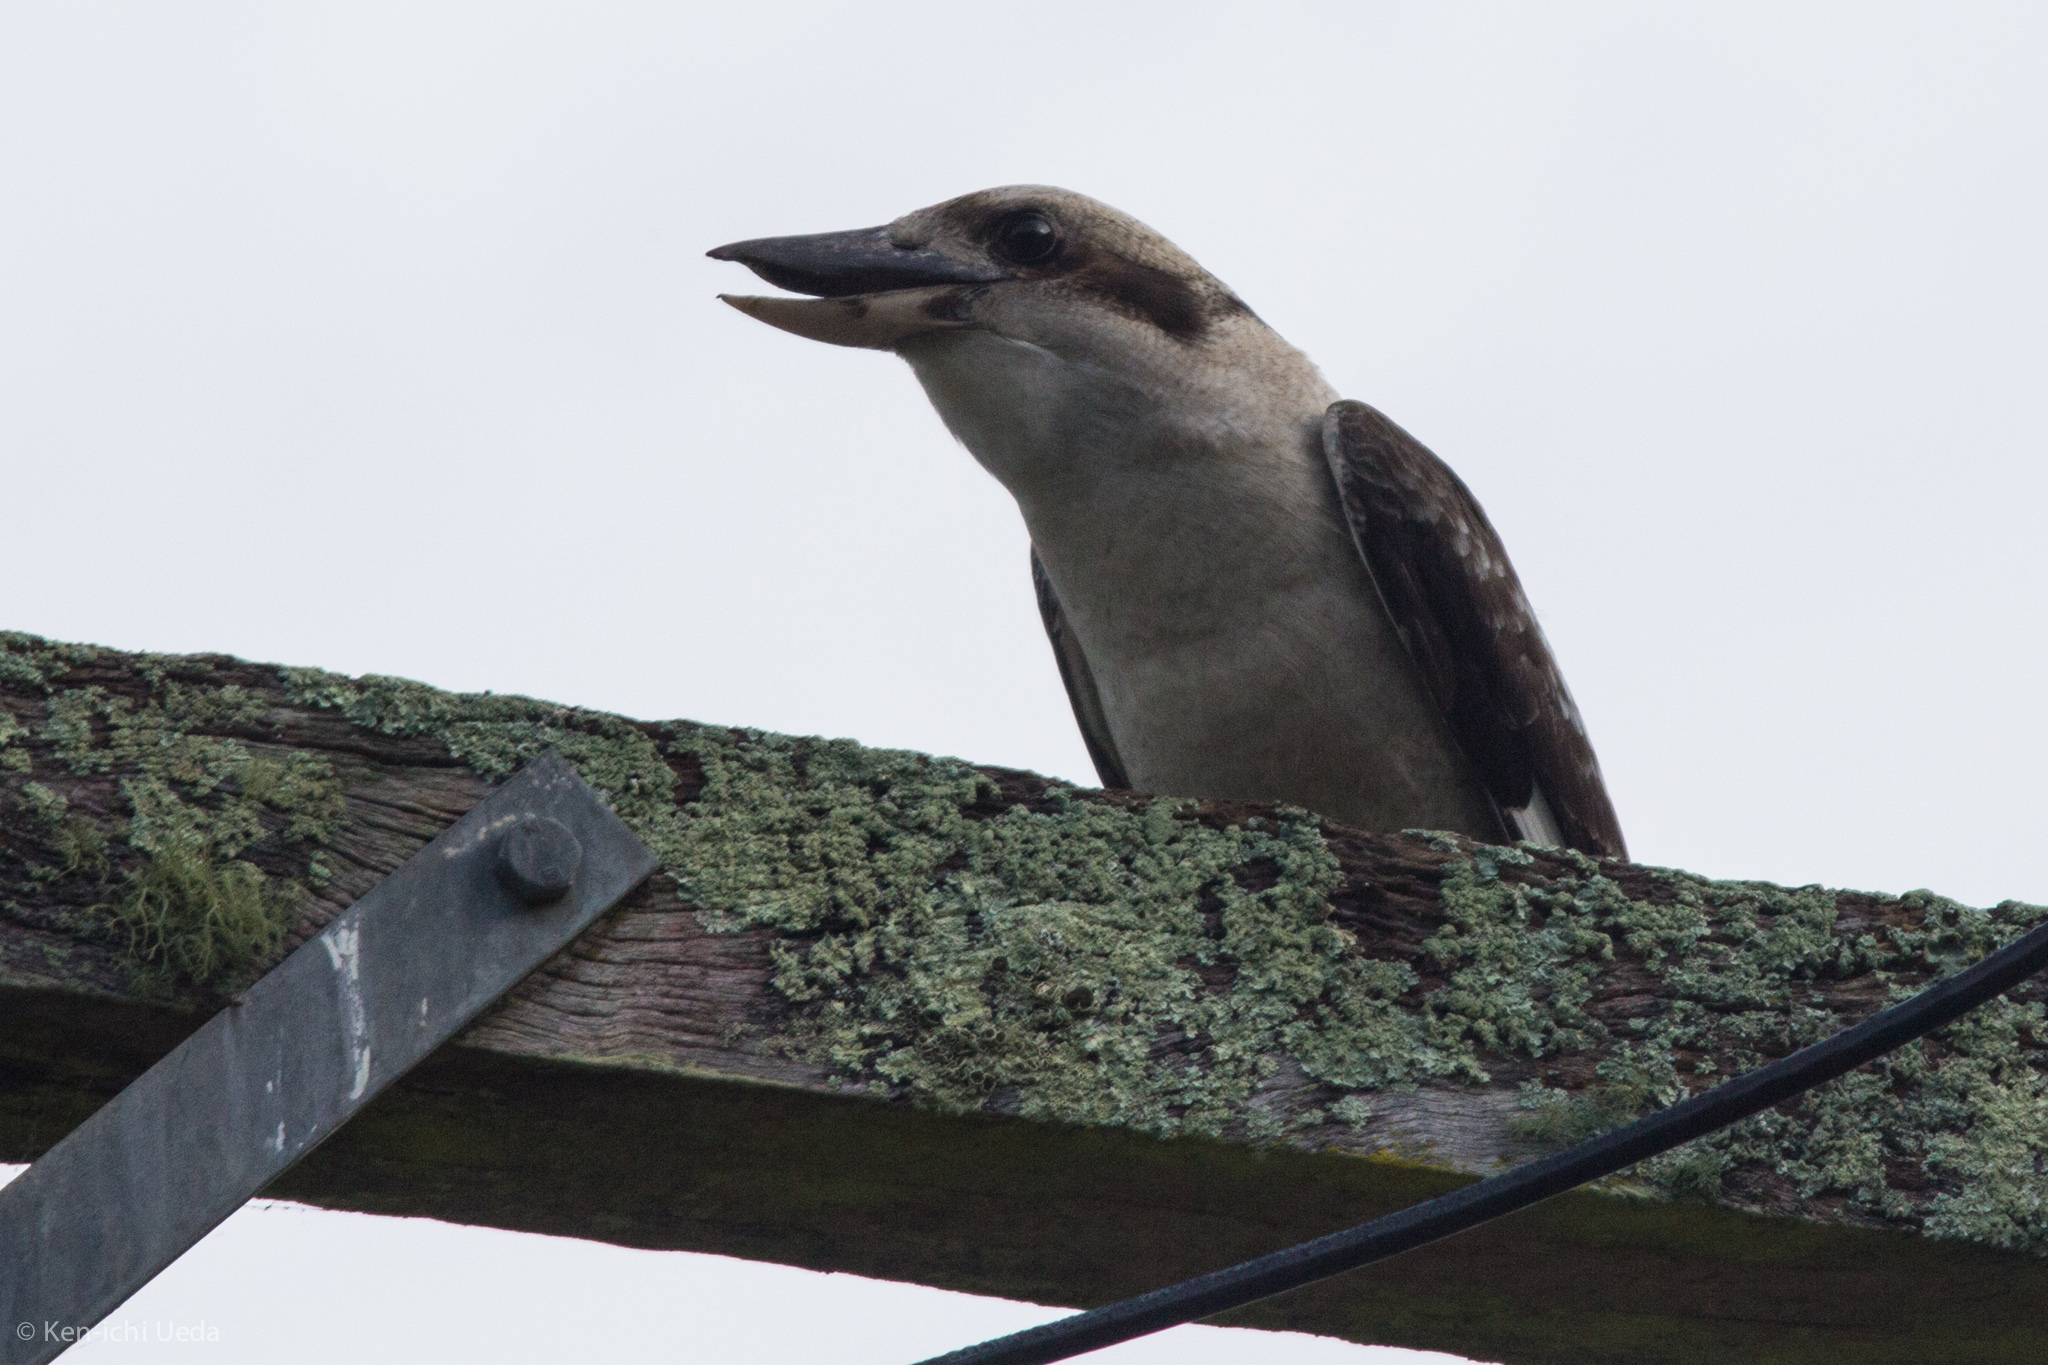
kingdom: Animalia
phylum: Chordata
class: Aves
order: Coraciiformes
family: Alcedinidae
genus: Dacelo
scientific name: Dacelo novaeguineae
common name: Laughing kookaburra
